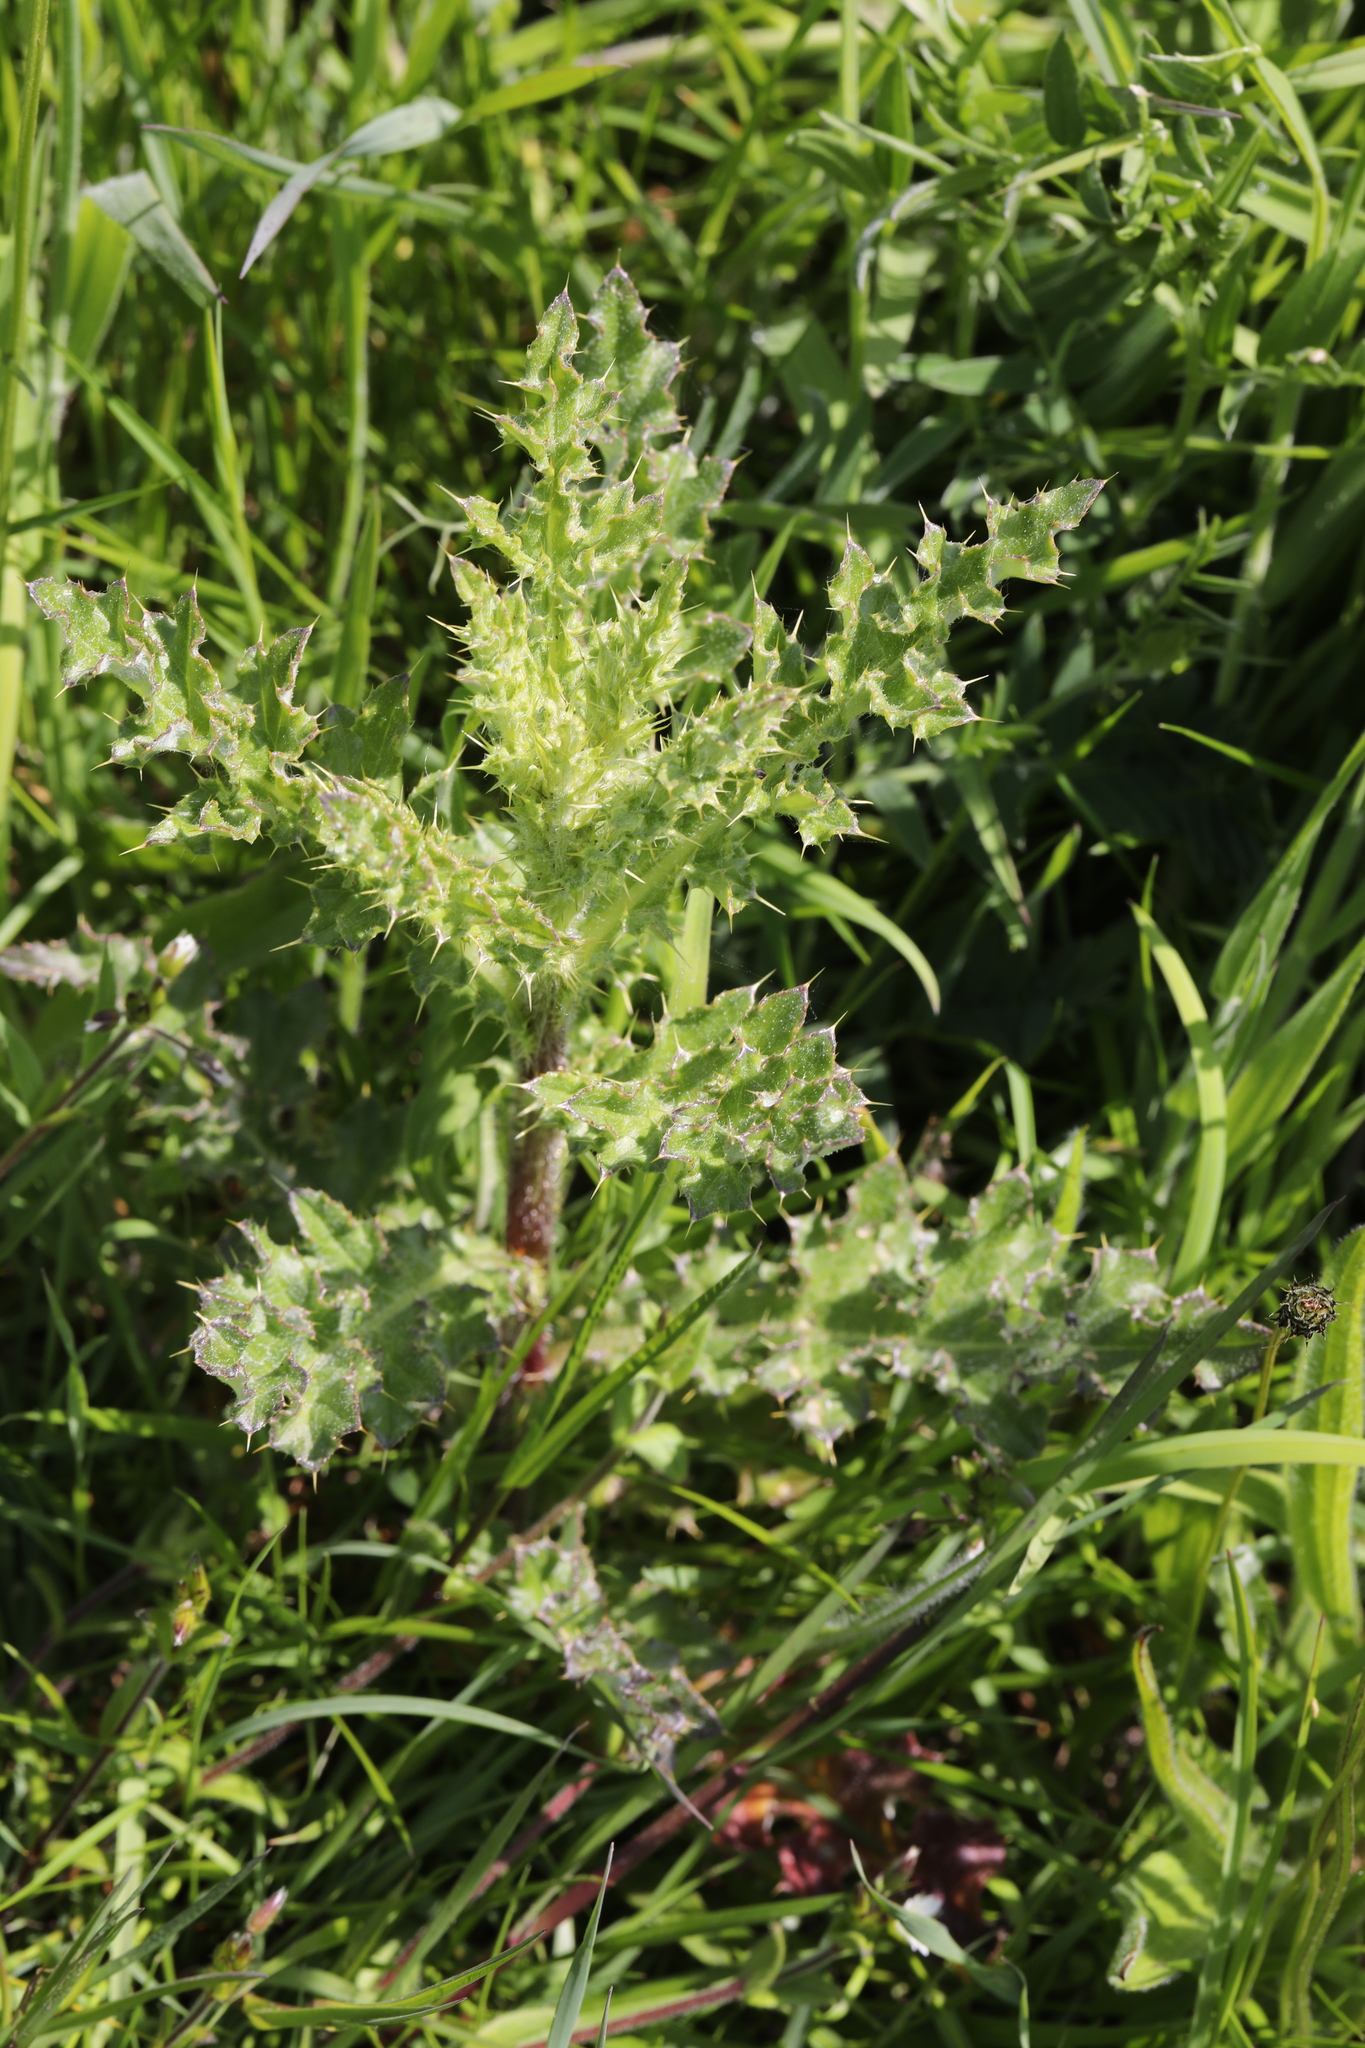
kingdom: Plantae
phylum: Tracheophyta
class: Magnoliopsida
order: Asterales
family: Asteraceae
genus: Cirsium
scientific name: Cirsium arvense
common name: Creeping thistle
